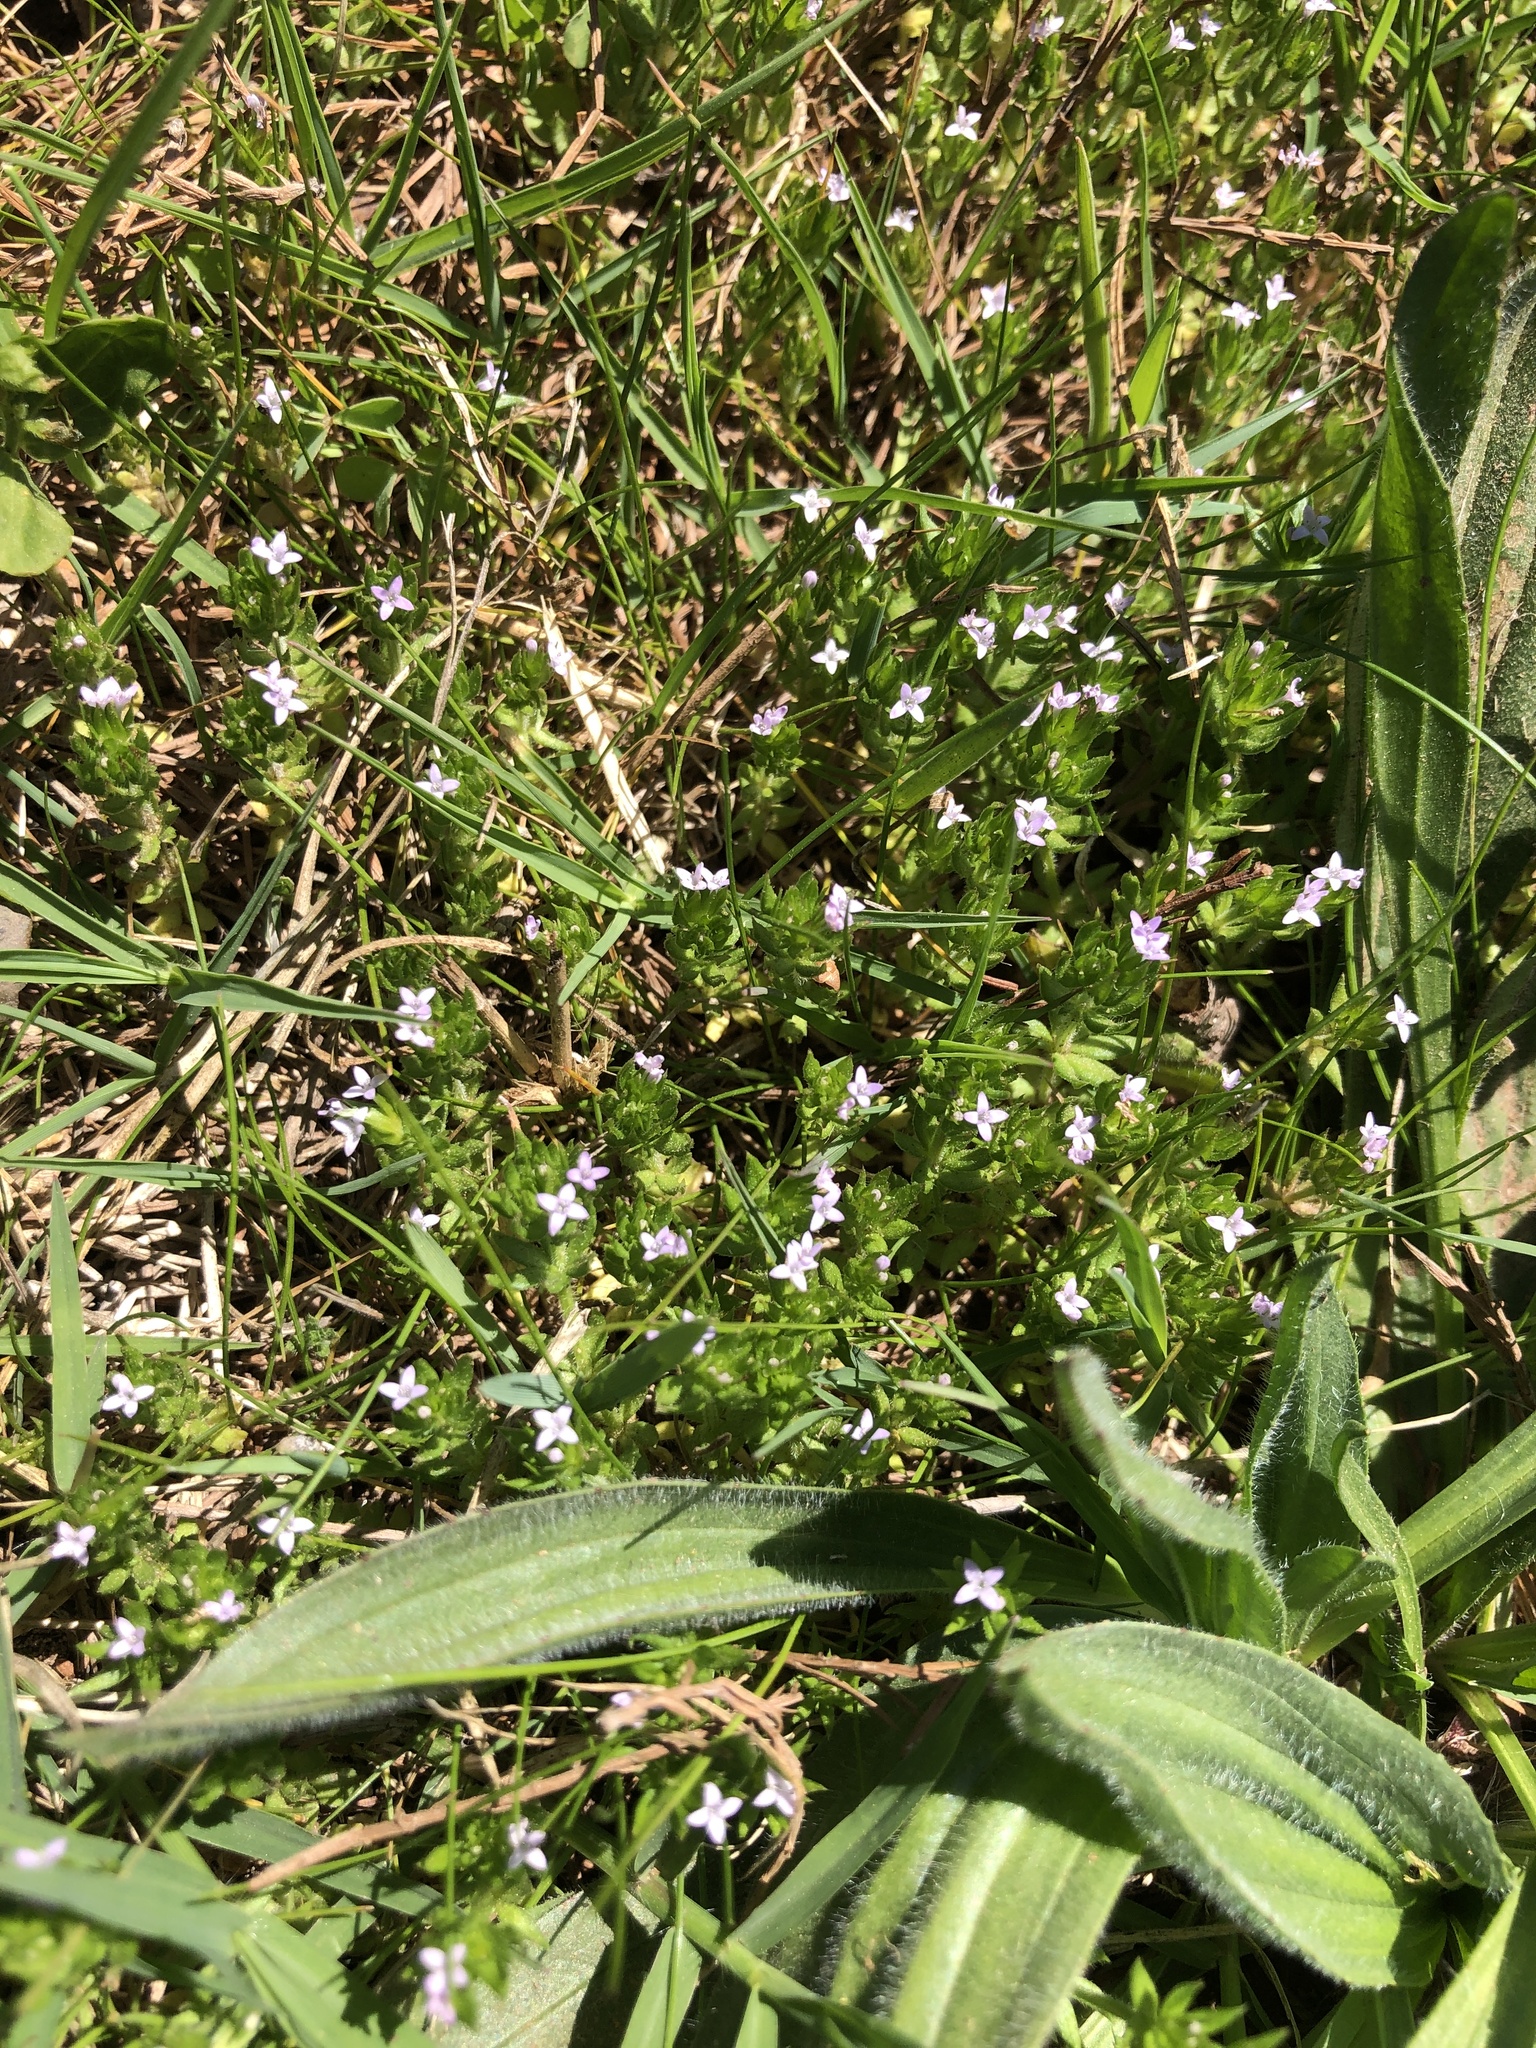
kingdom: Plantae
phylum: Tracheophyta
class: Magnoliopsida
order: Gentianales
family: Rubiaceae
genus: Sherardia
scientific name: Sherardia arvensis
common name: Field madder
